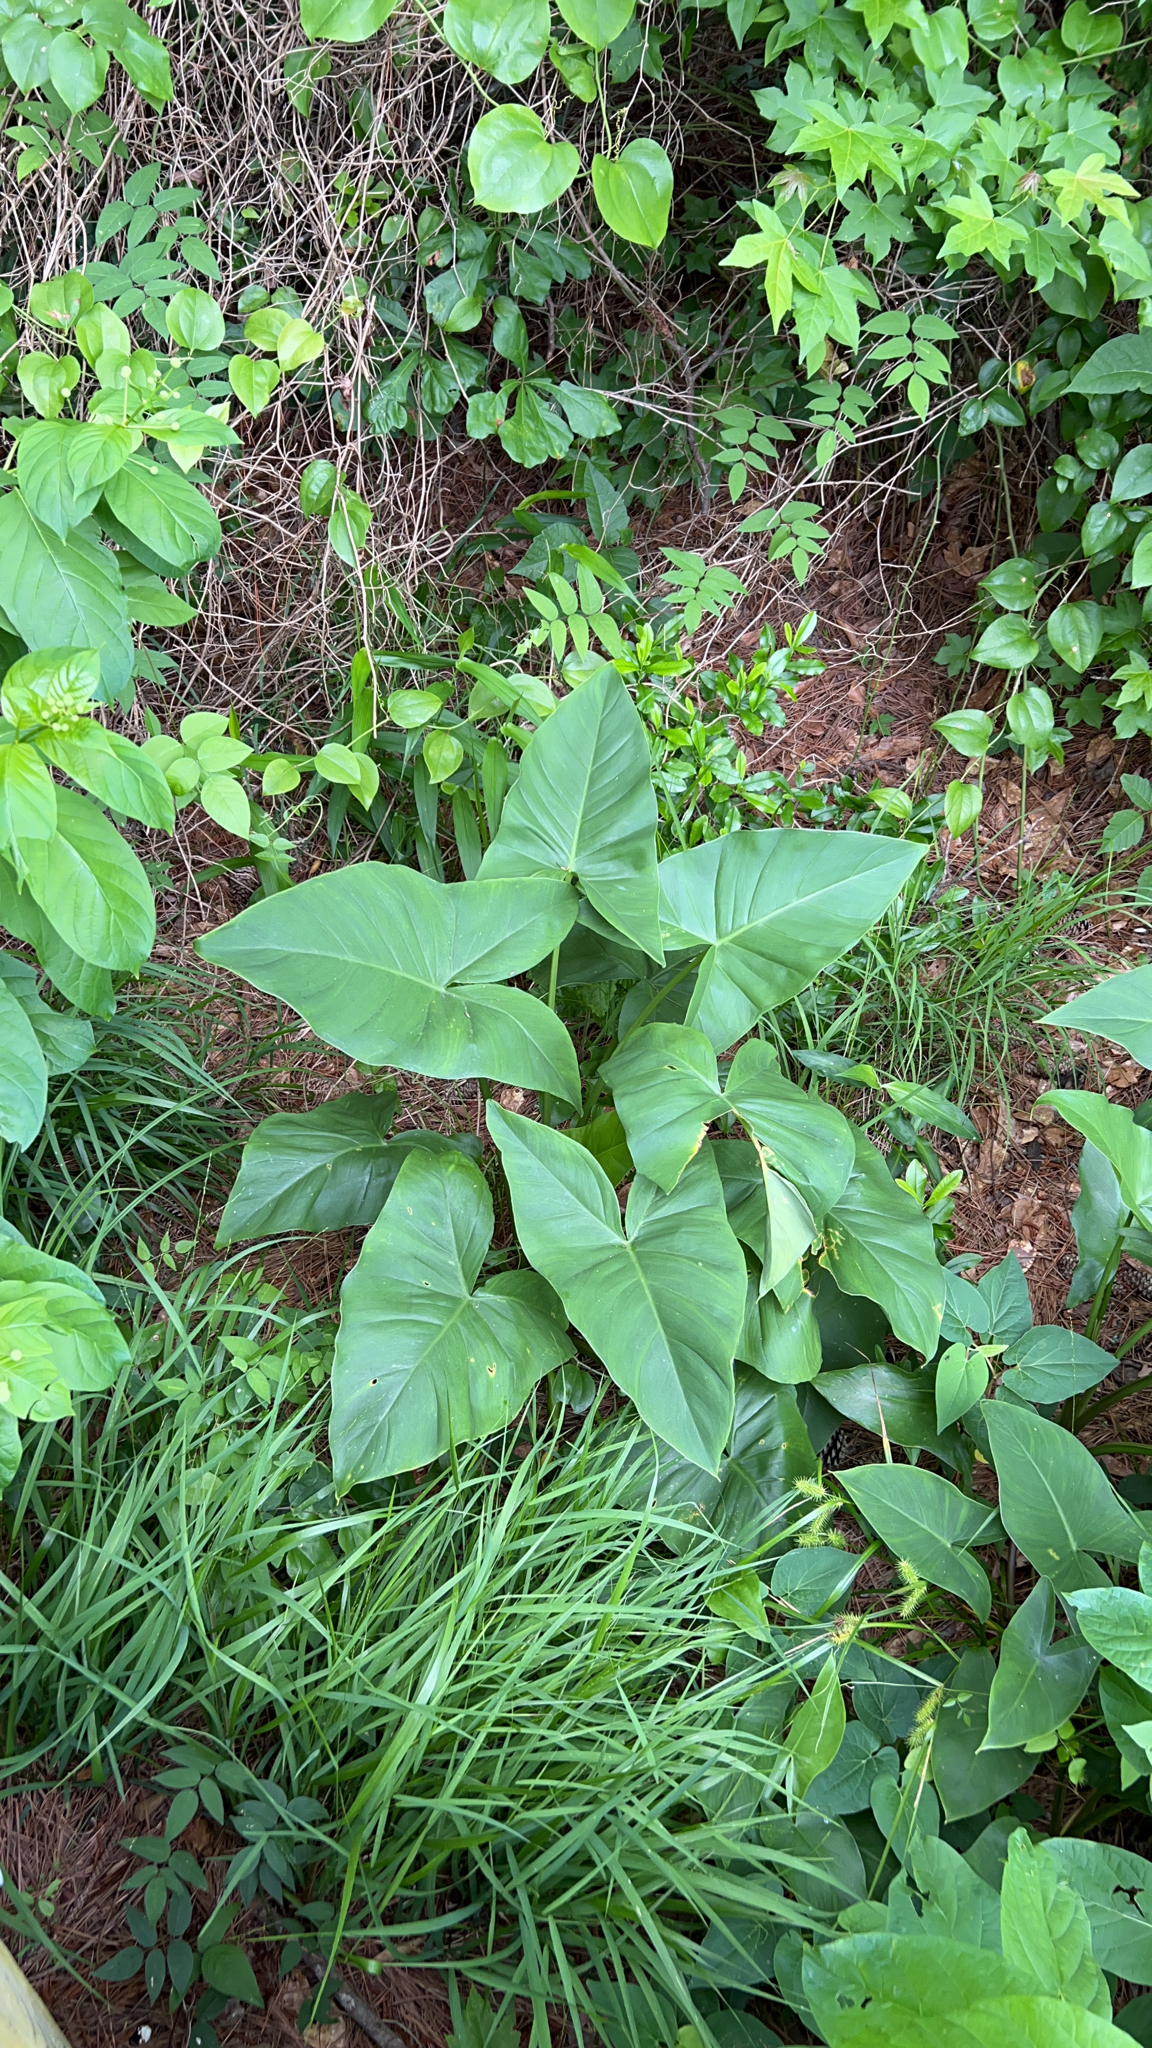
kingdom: Plantae
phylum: Tracheophyta
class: Liliopsida
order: Alismatales
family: Araceae
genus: Peltandra
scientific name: Peltandra virginica
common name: Arrow arum
